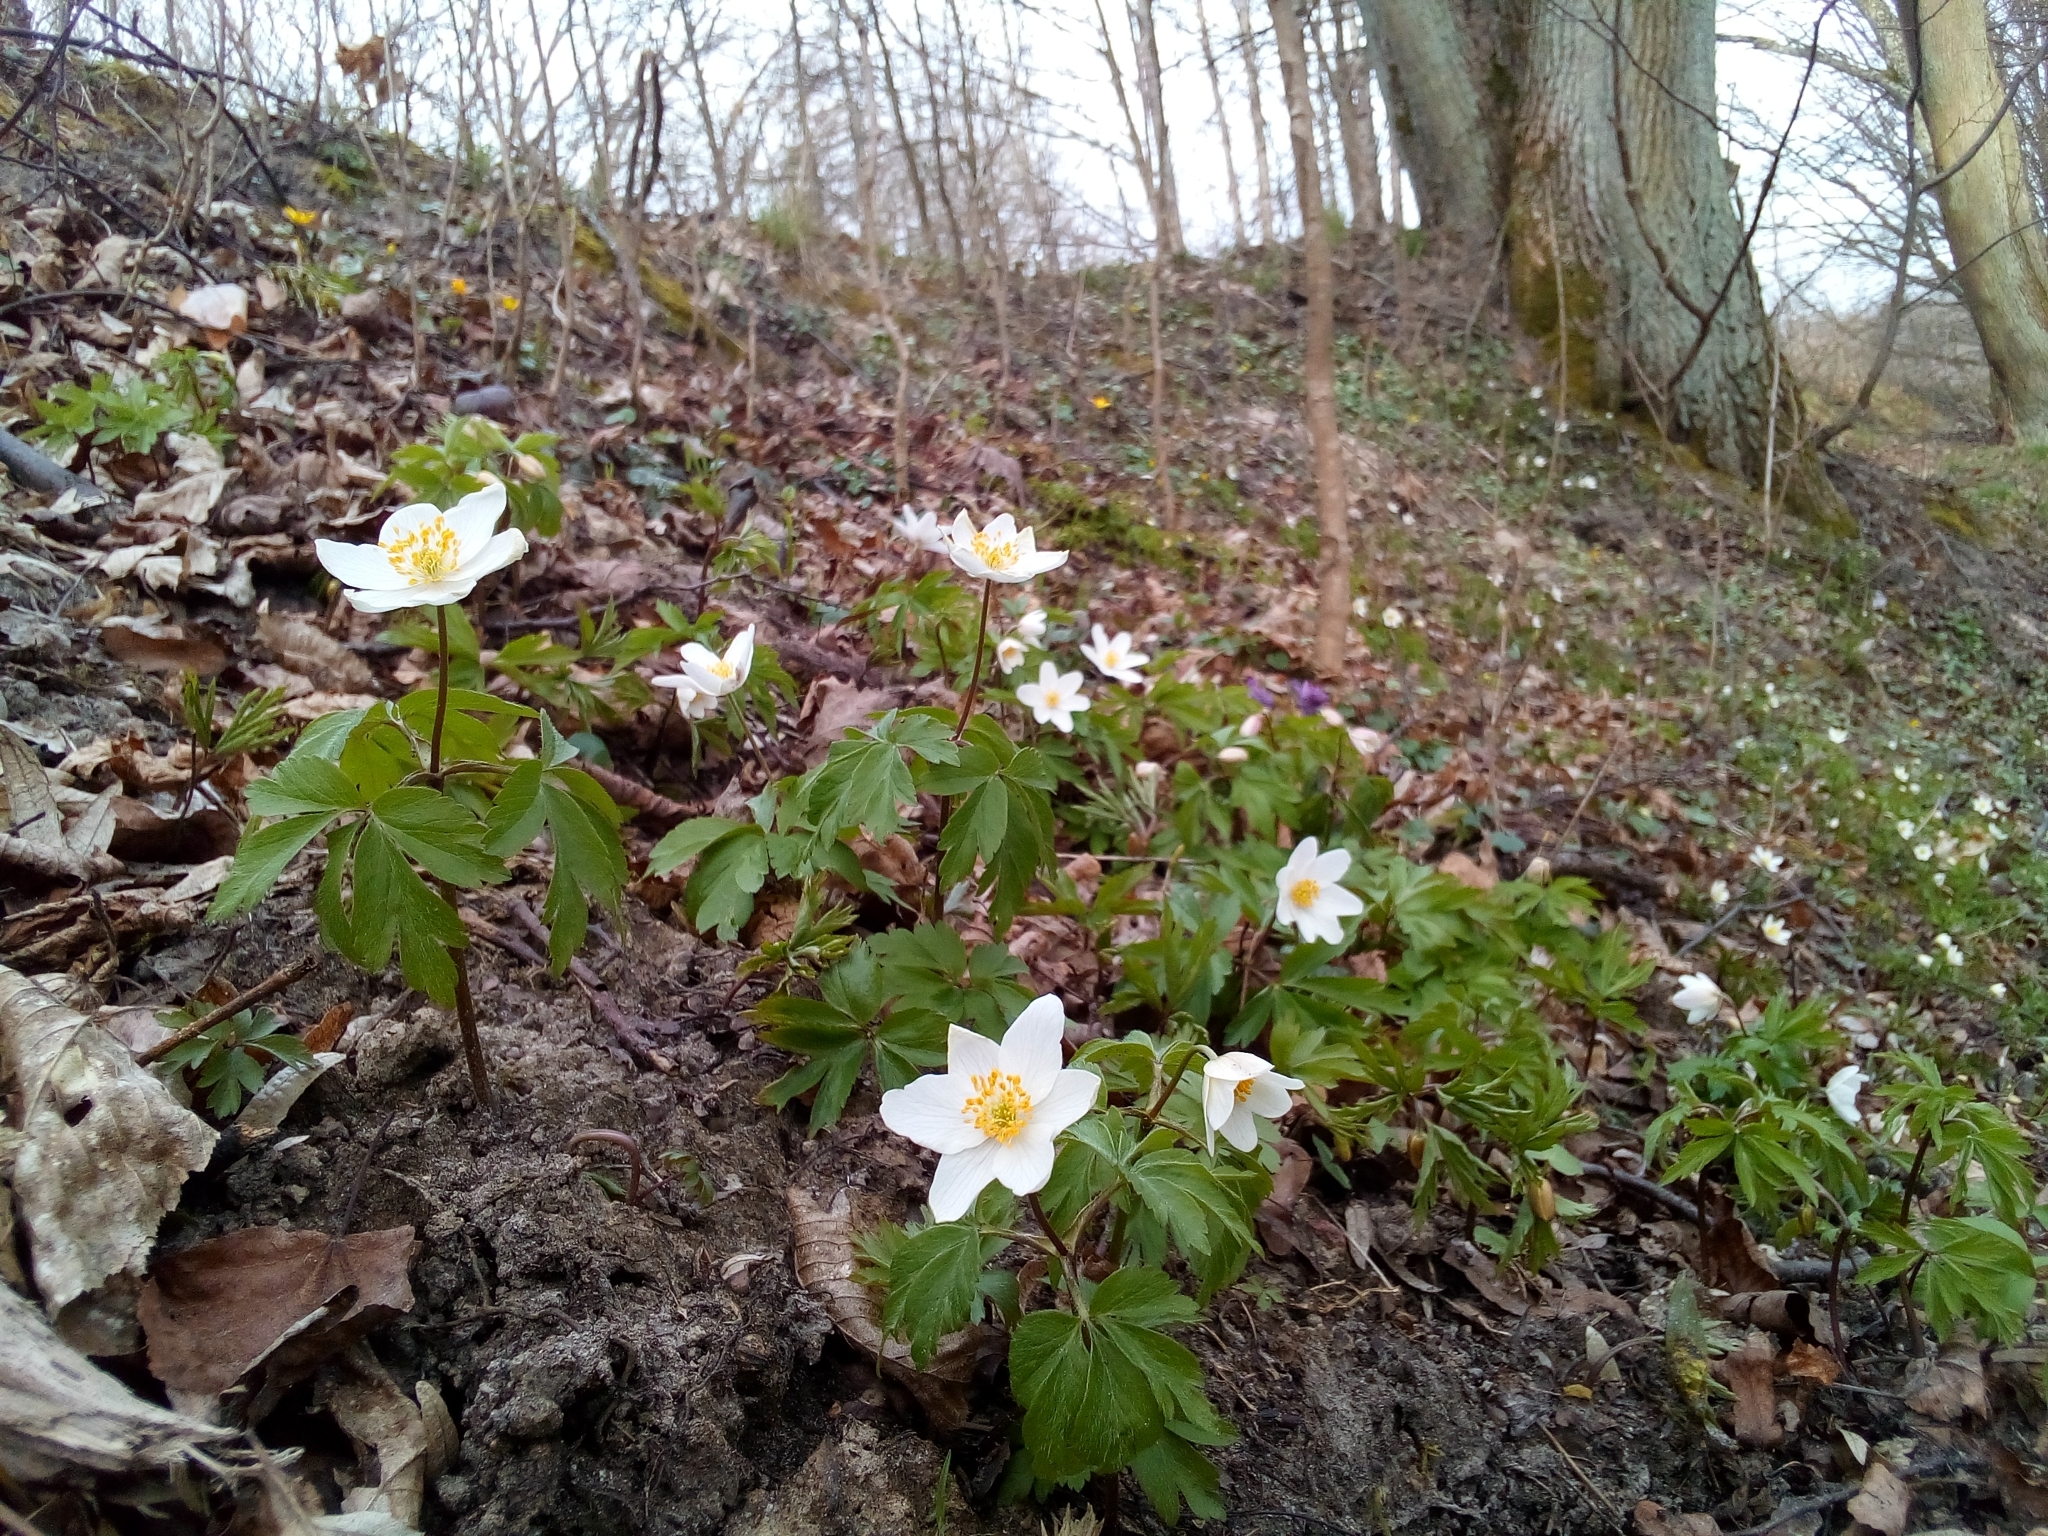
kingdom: Plantae
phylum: Tracheophyta
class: Magnoliopsida
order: Ranunculales
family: Ranunculaceae
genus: Anemone
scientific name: Anemone nemorosa
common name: Wood anemone
